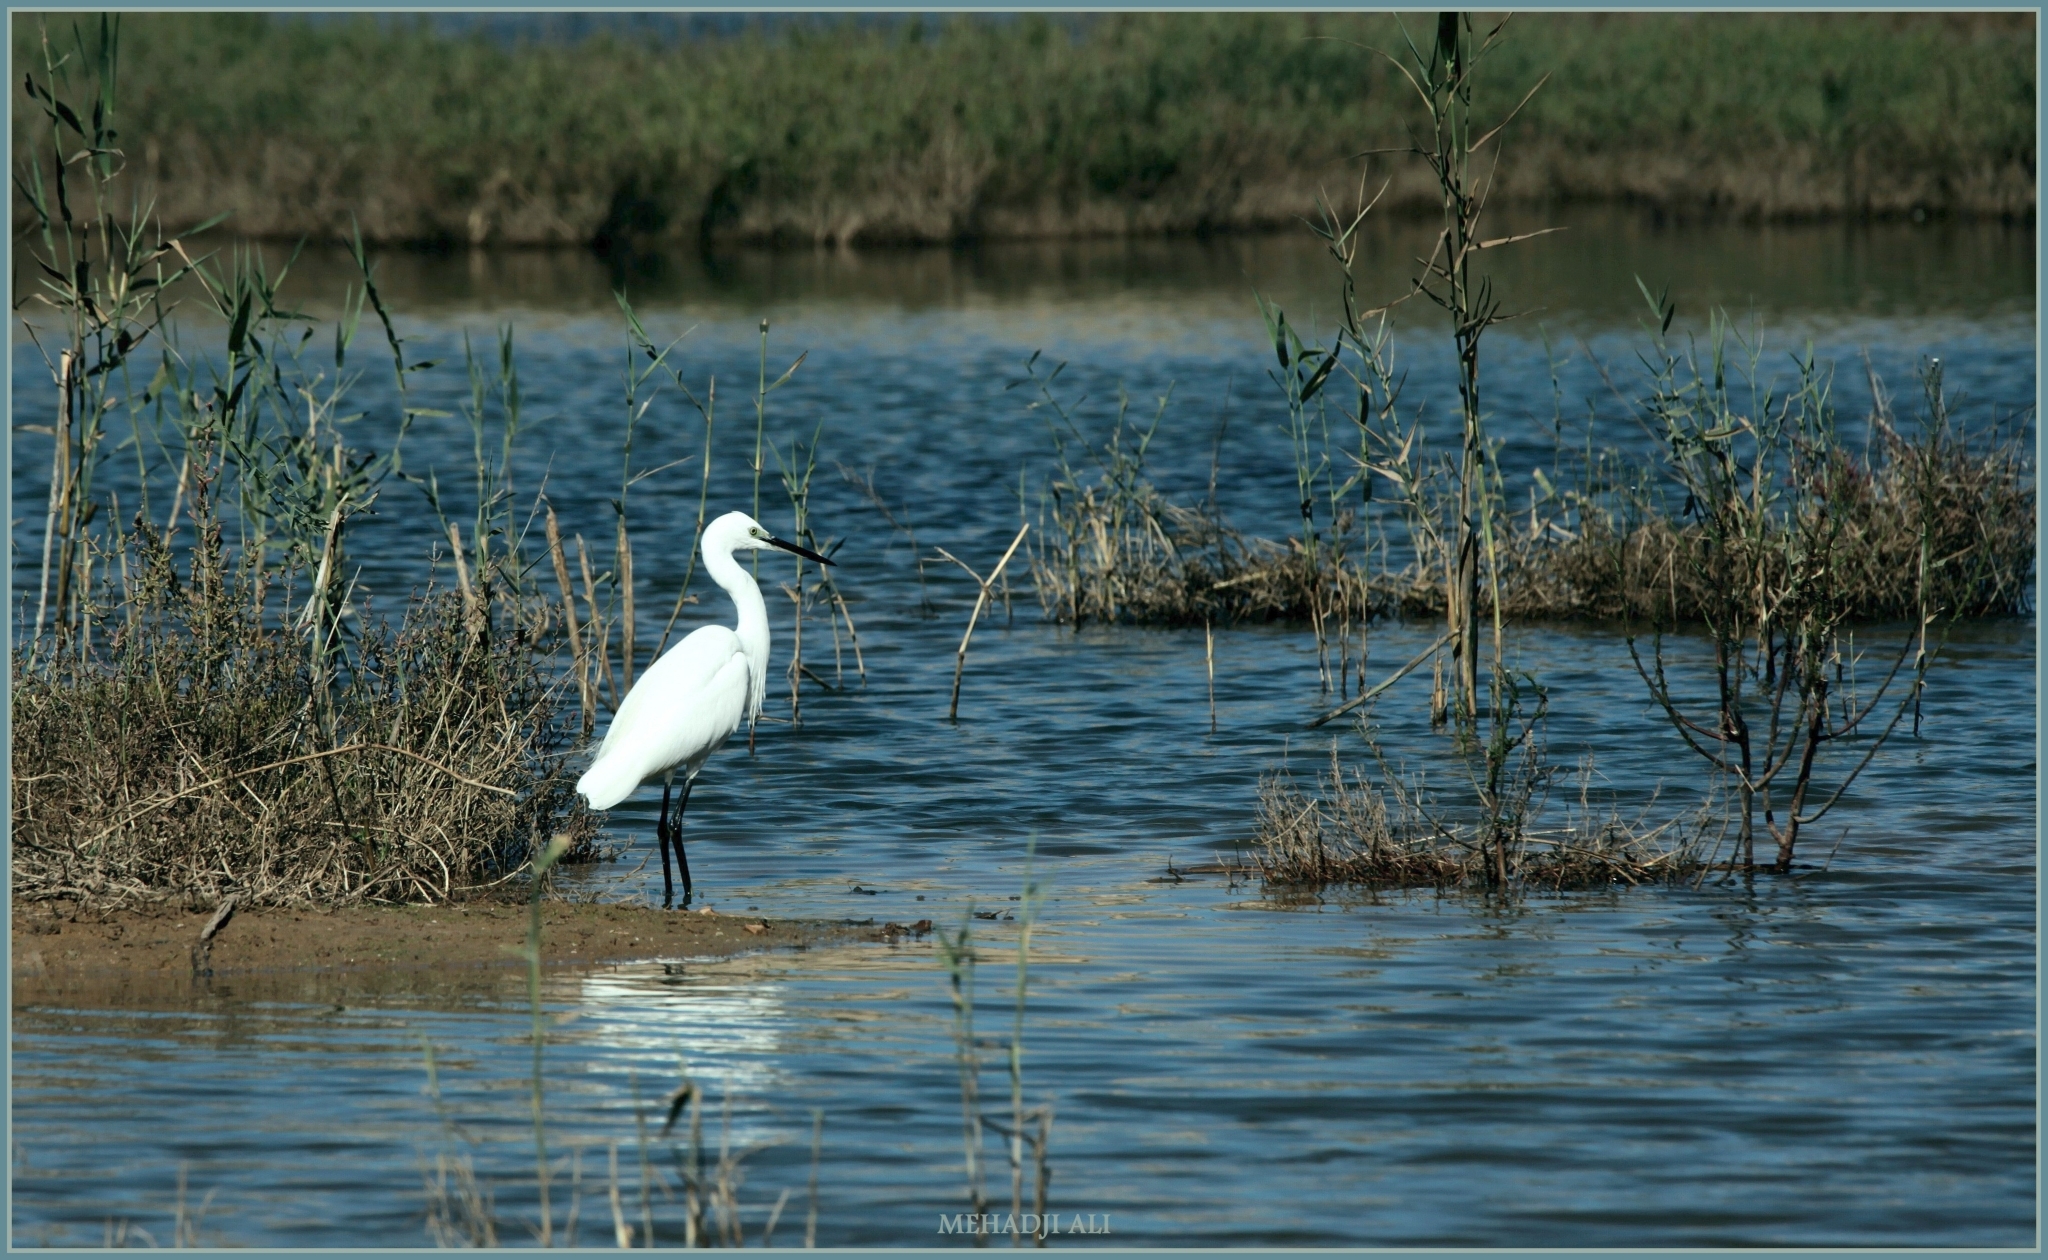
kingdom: Animalia
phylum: Chordata
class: Aves
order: Pelecaniformes
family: Ardeidae
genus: Egretta
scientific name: Egretta garzetta
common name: Little egret
